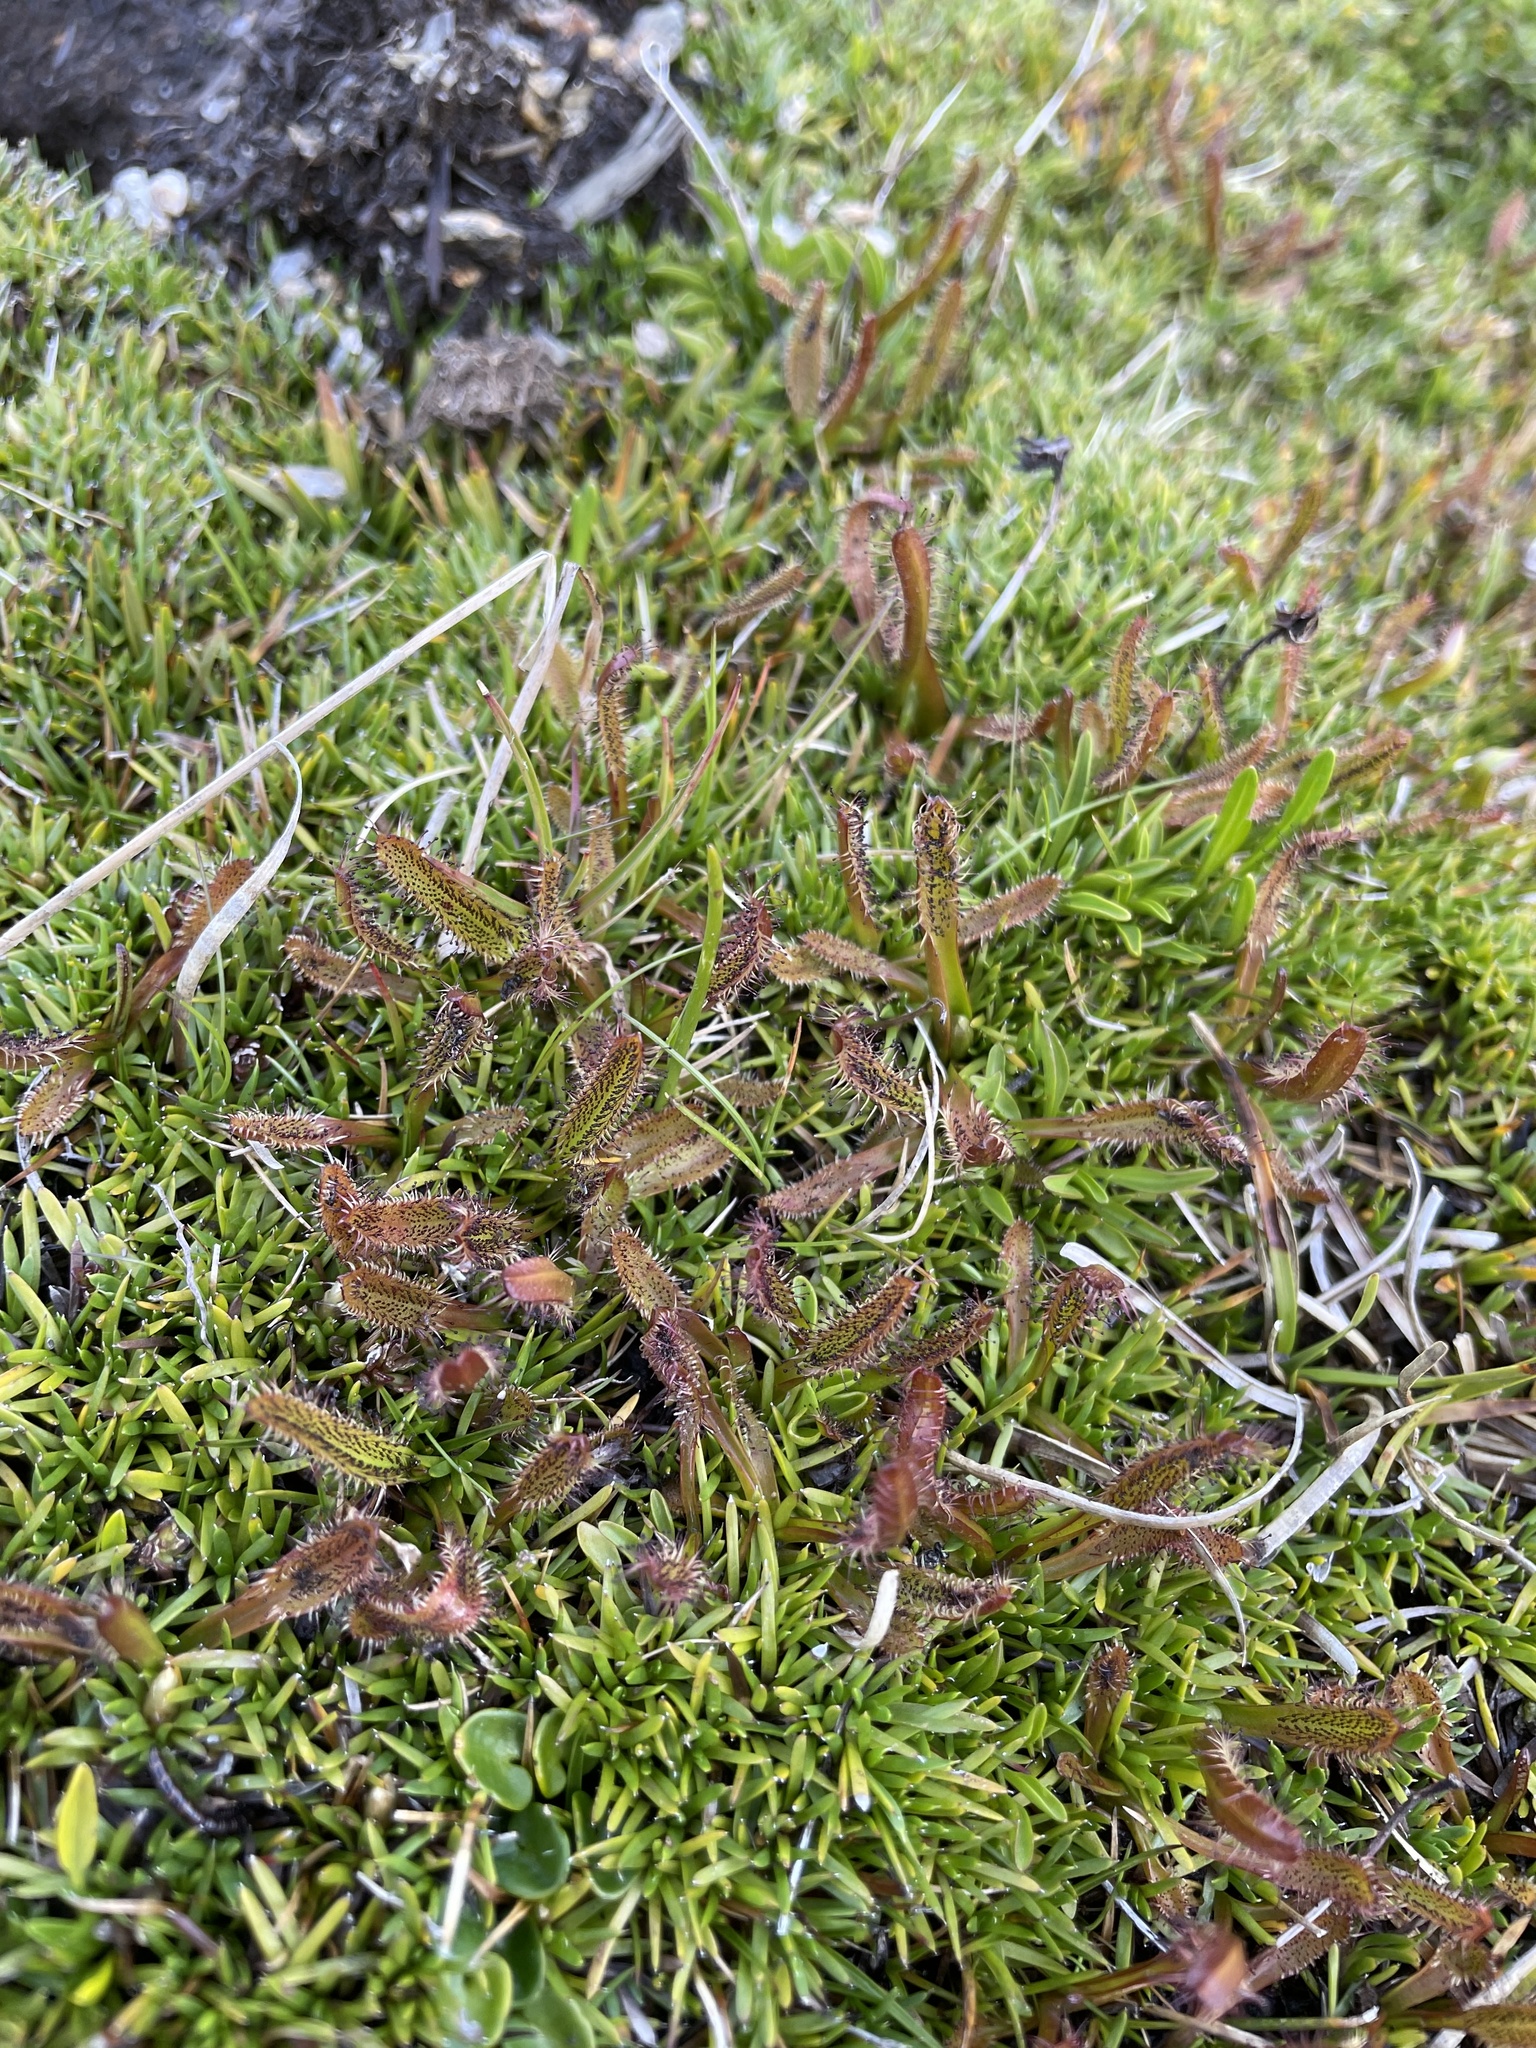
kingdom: Plantae
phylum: Tracheophyta
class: Magnoliopsida
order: Caryophyllales
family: Droseraceae
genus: Drosera
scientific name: Drosera arcturi
